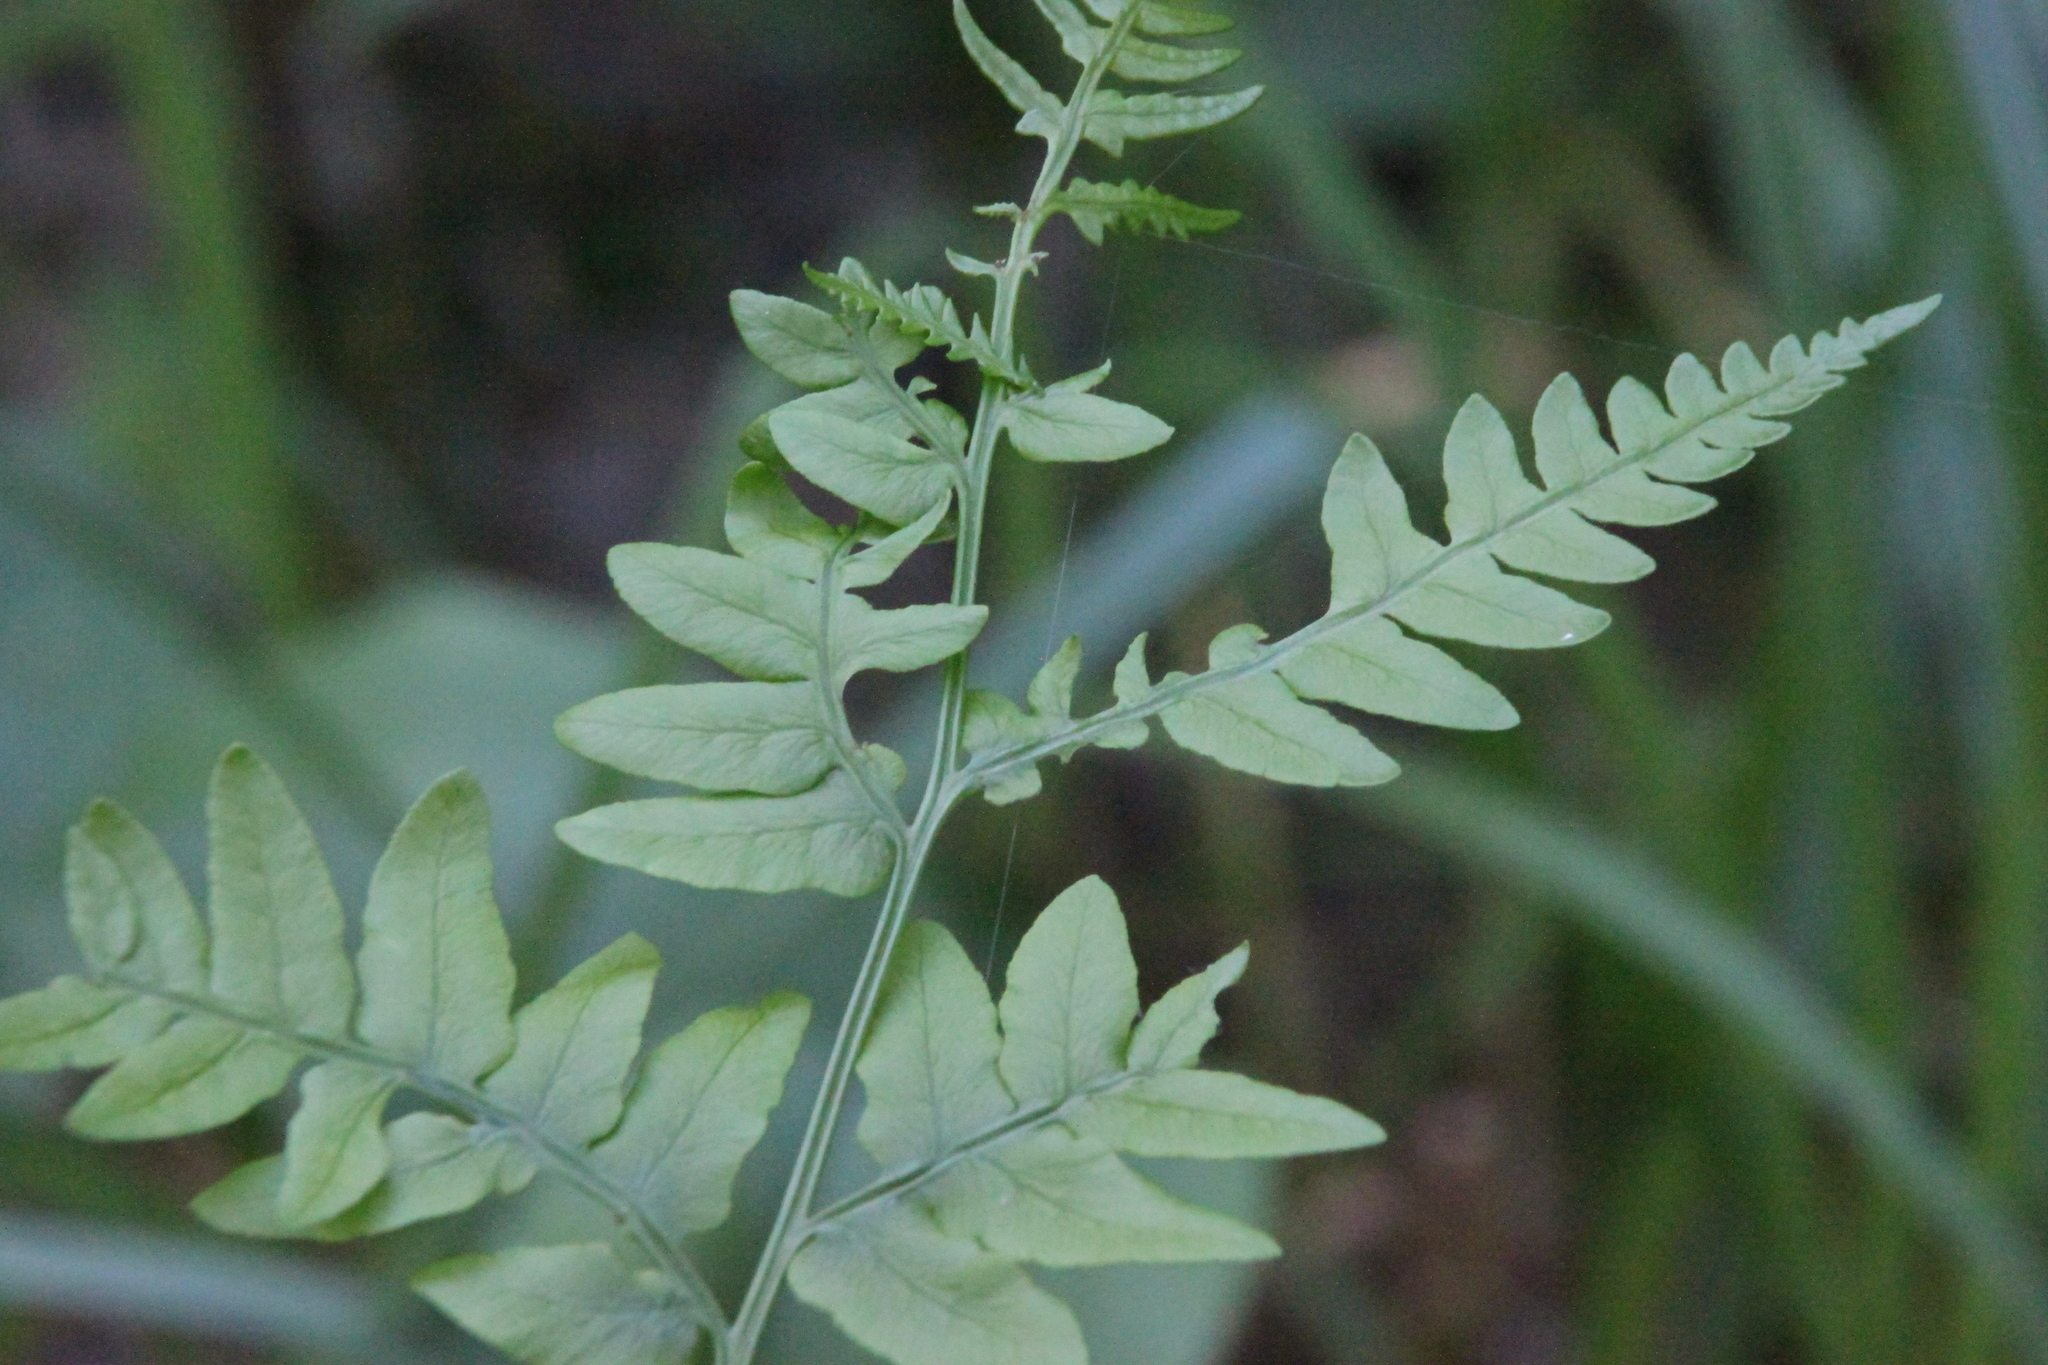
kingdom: Plantae
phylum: Tracheophyta
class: Polypodiopsida
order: Polypodiales
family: Dennstaedtiaceae
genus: Pteridium
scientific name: Pteridium aquilinum
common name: Bracken
